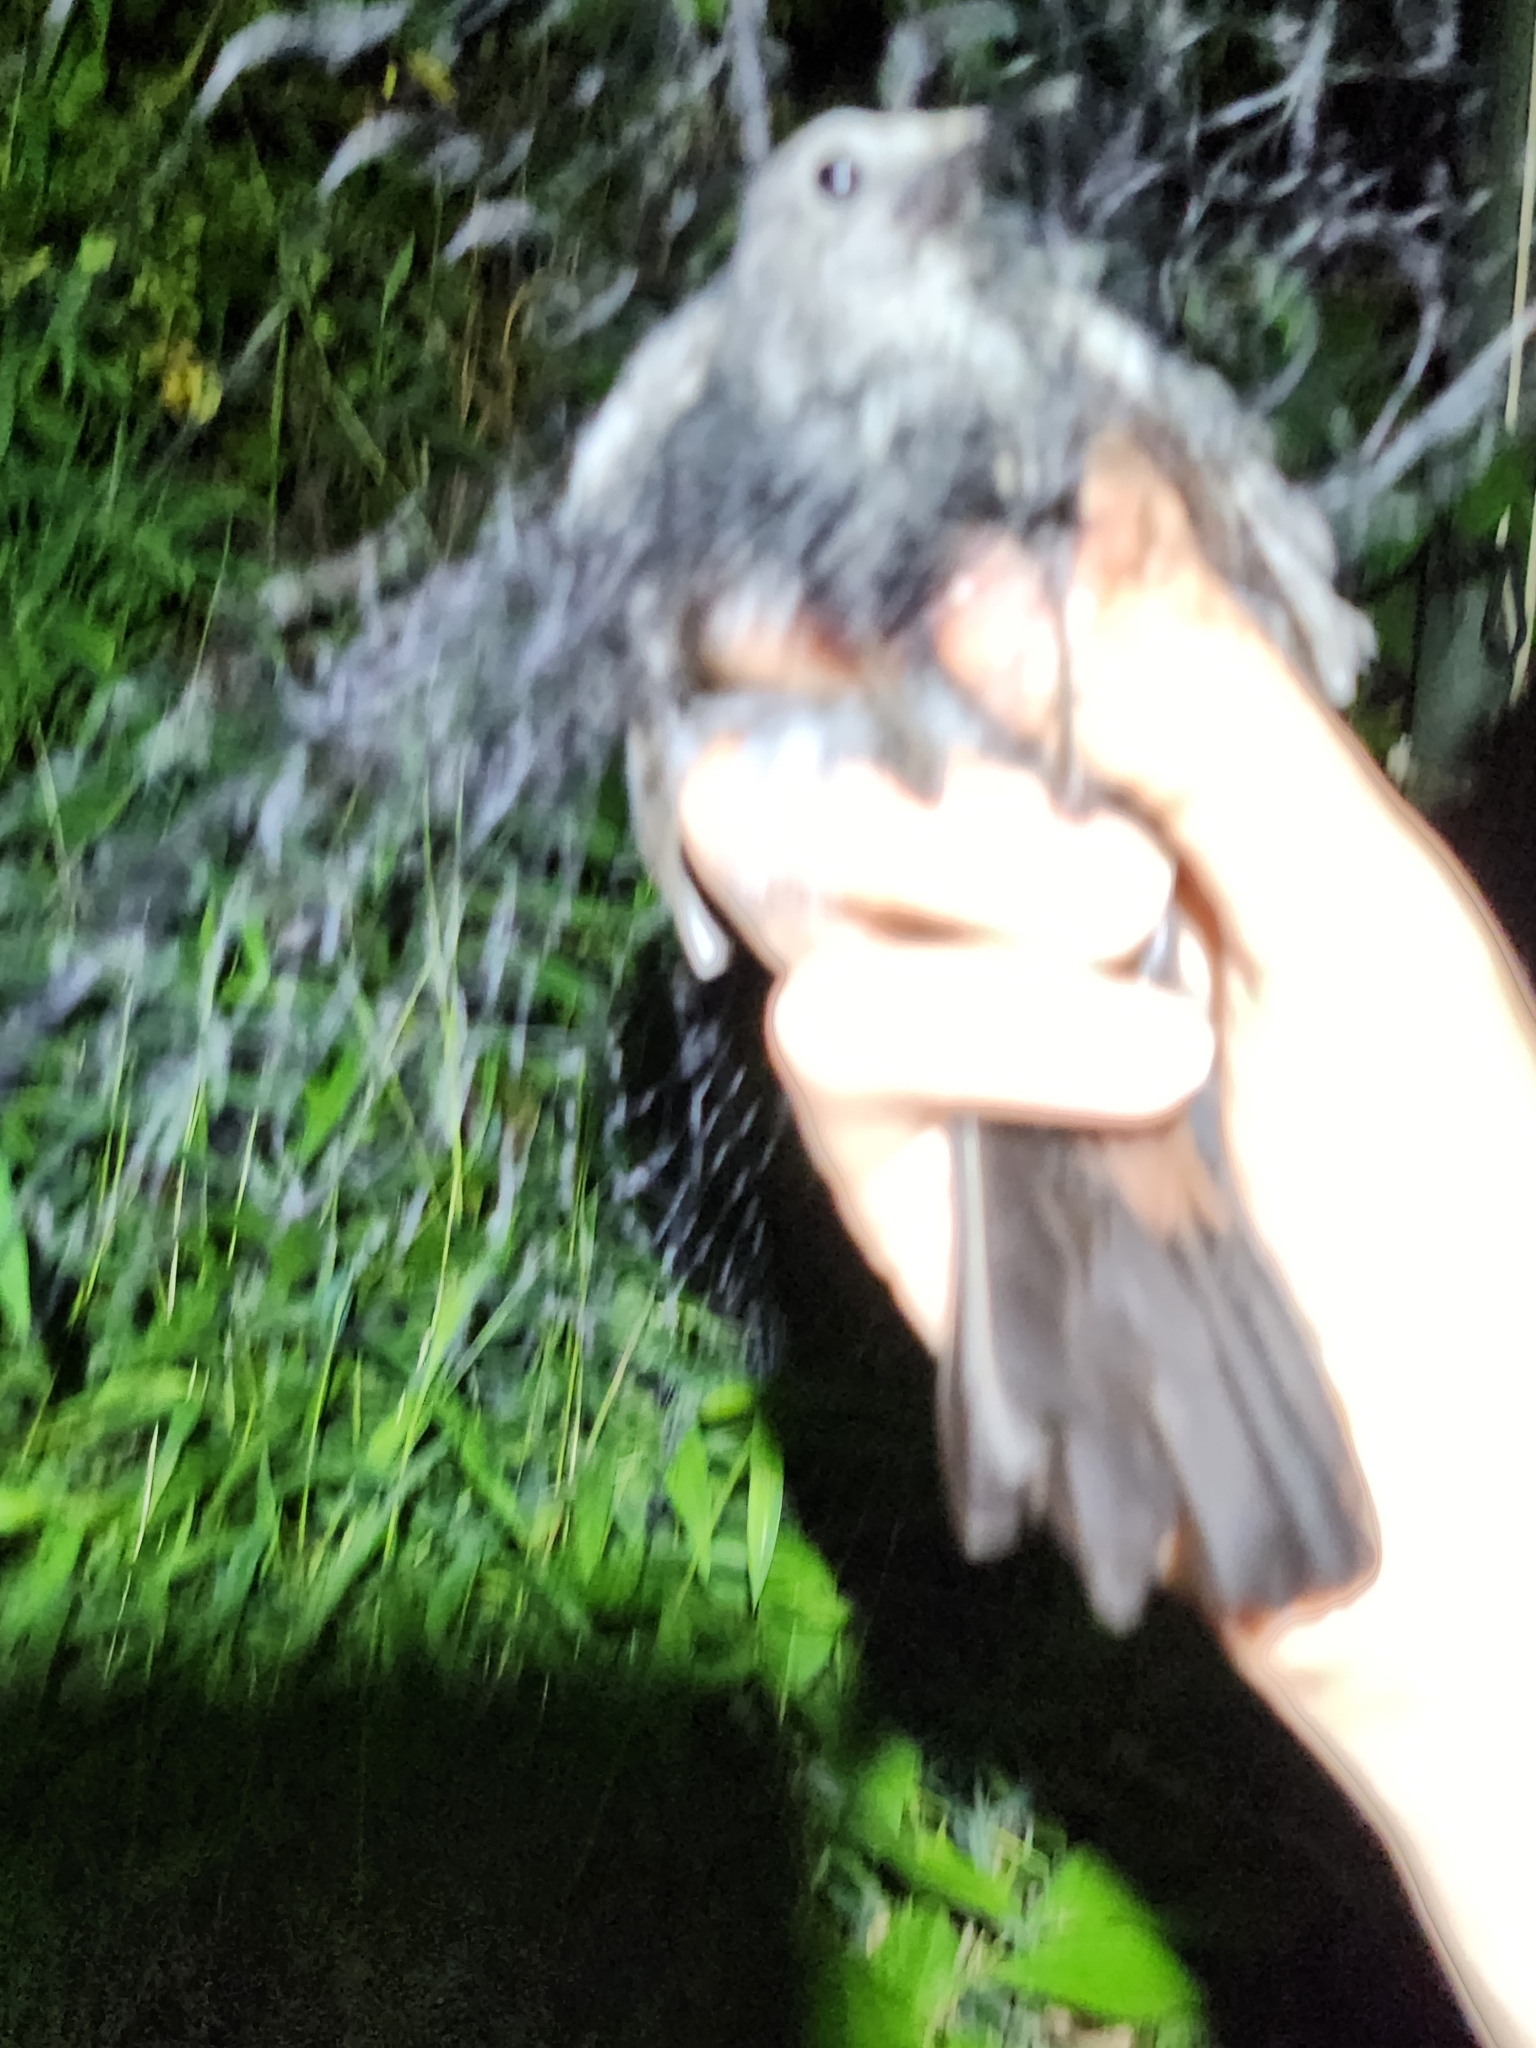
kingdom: Animalia
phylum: Chordata
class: Aves
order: Passeriformes
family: Mimidae
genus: Dumetella
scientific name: Dumetella carolinensis
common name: Gray catbird
